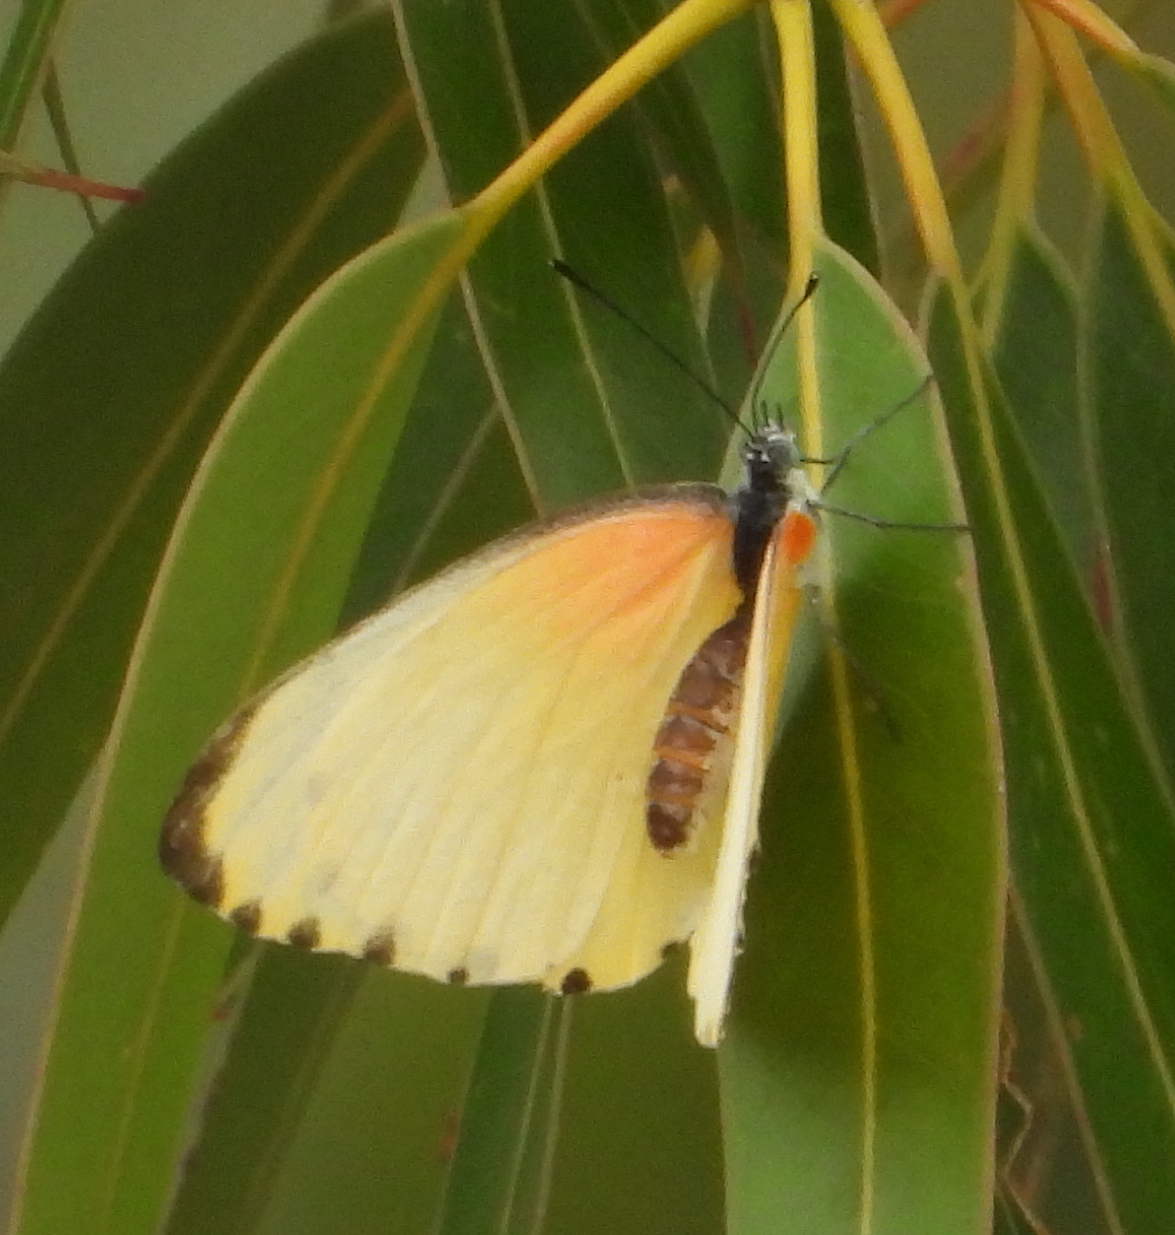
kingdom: Animalia
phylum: Arthropoda
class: Insecta
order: Lepidoptera
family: Pieridae
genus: Mylothris
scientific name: Mylothris agathina
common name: Eastern dotted border
